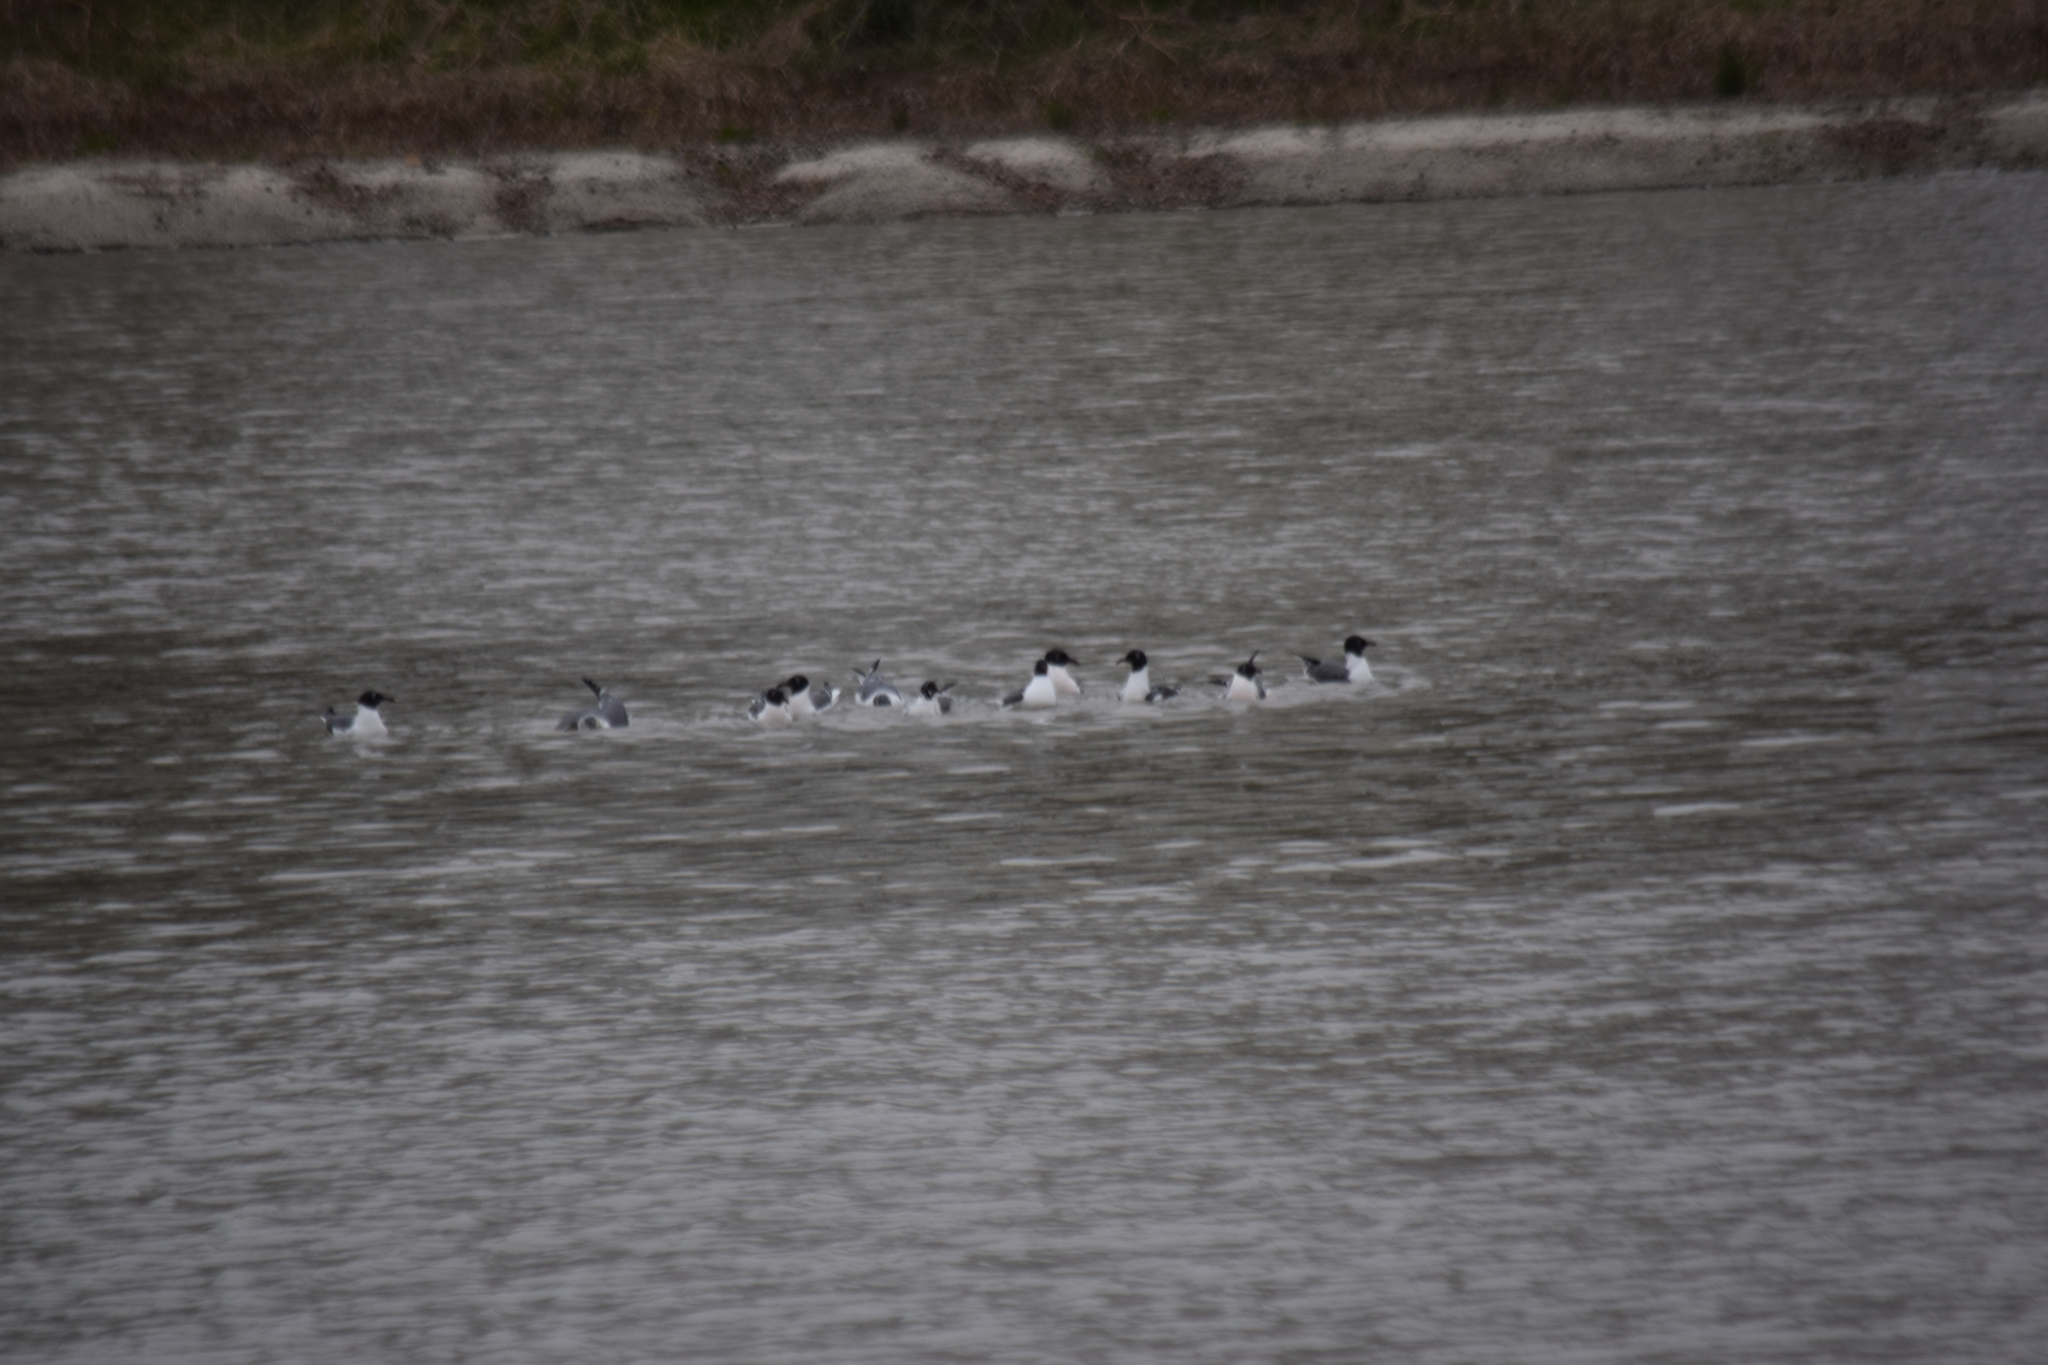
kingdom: Animalia
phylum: Chordata
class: Aves
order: Charadriiformes
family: Laridae
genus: Leucophaeus
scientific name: Leucophaeus atricilla
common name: Laughing gull
